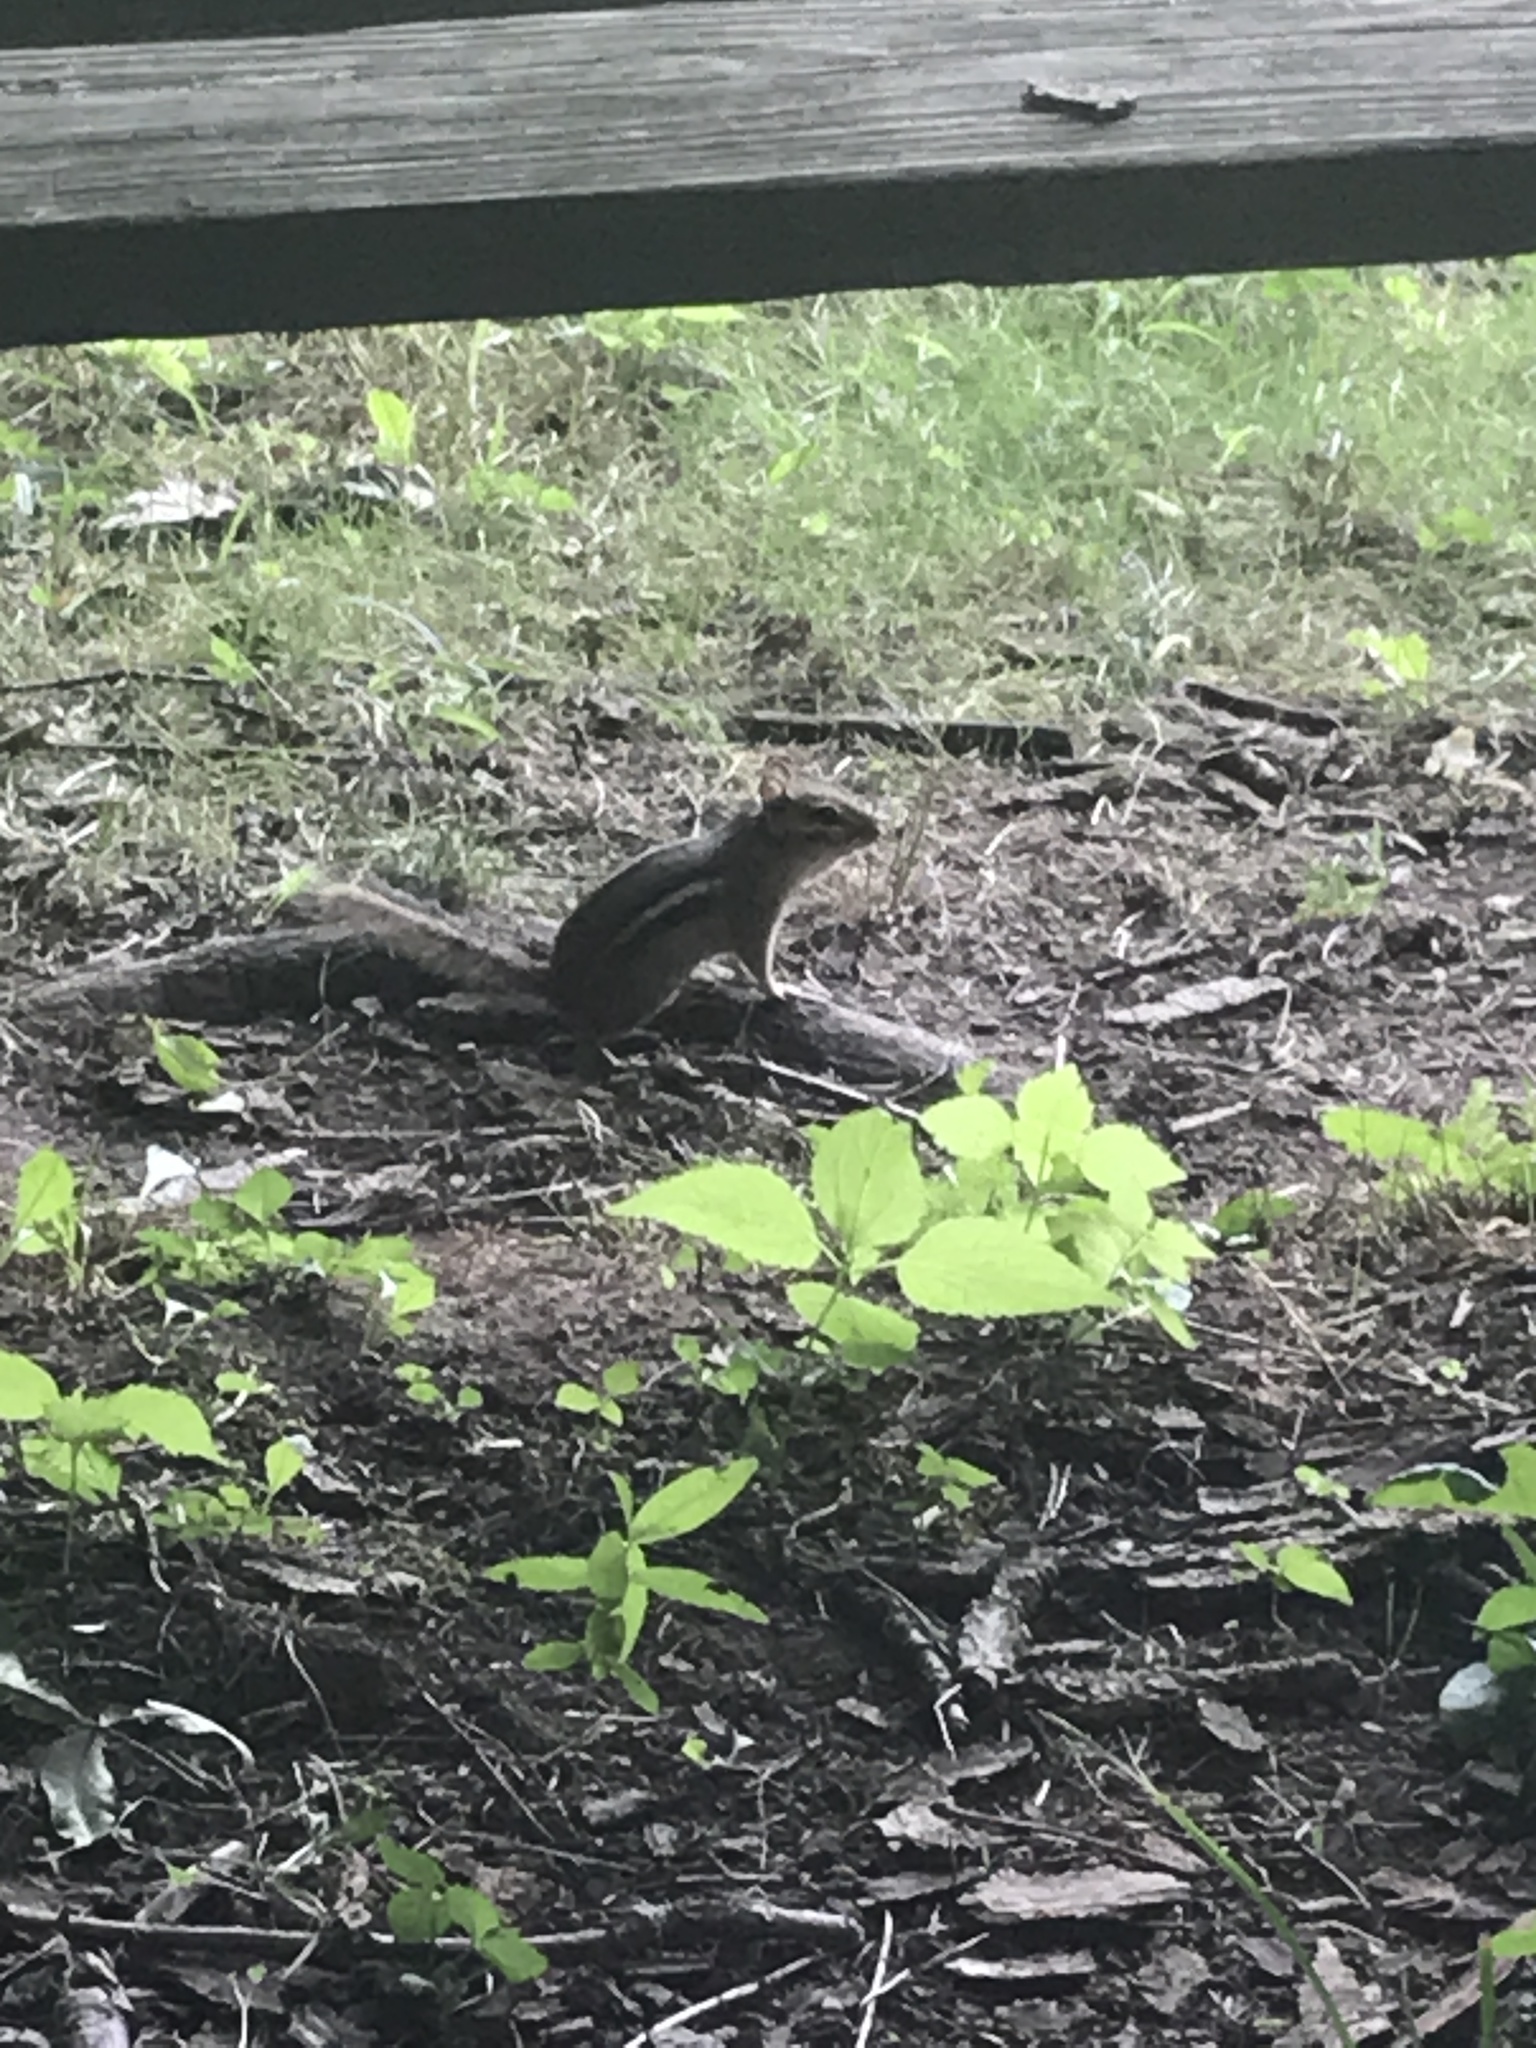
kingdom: Animalia
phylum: Chordata
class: Mammalia
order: Rodentia
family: Sciuridae
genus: Tamias
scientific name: Tamias striatus
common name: Eastern chipmunk
